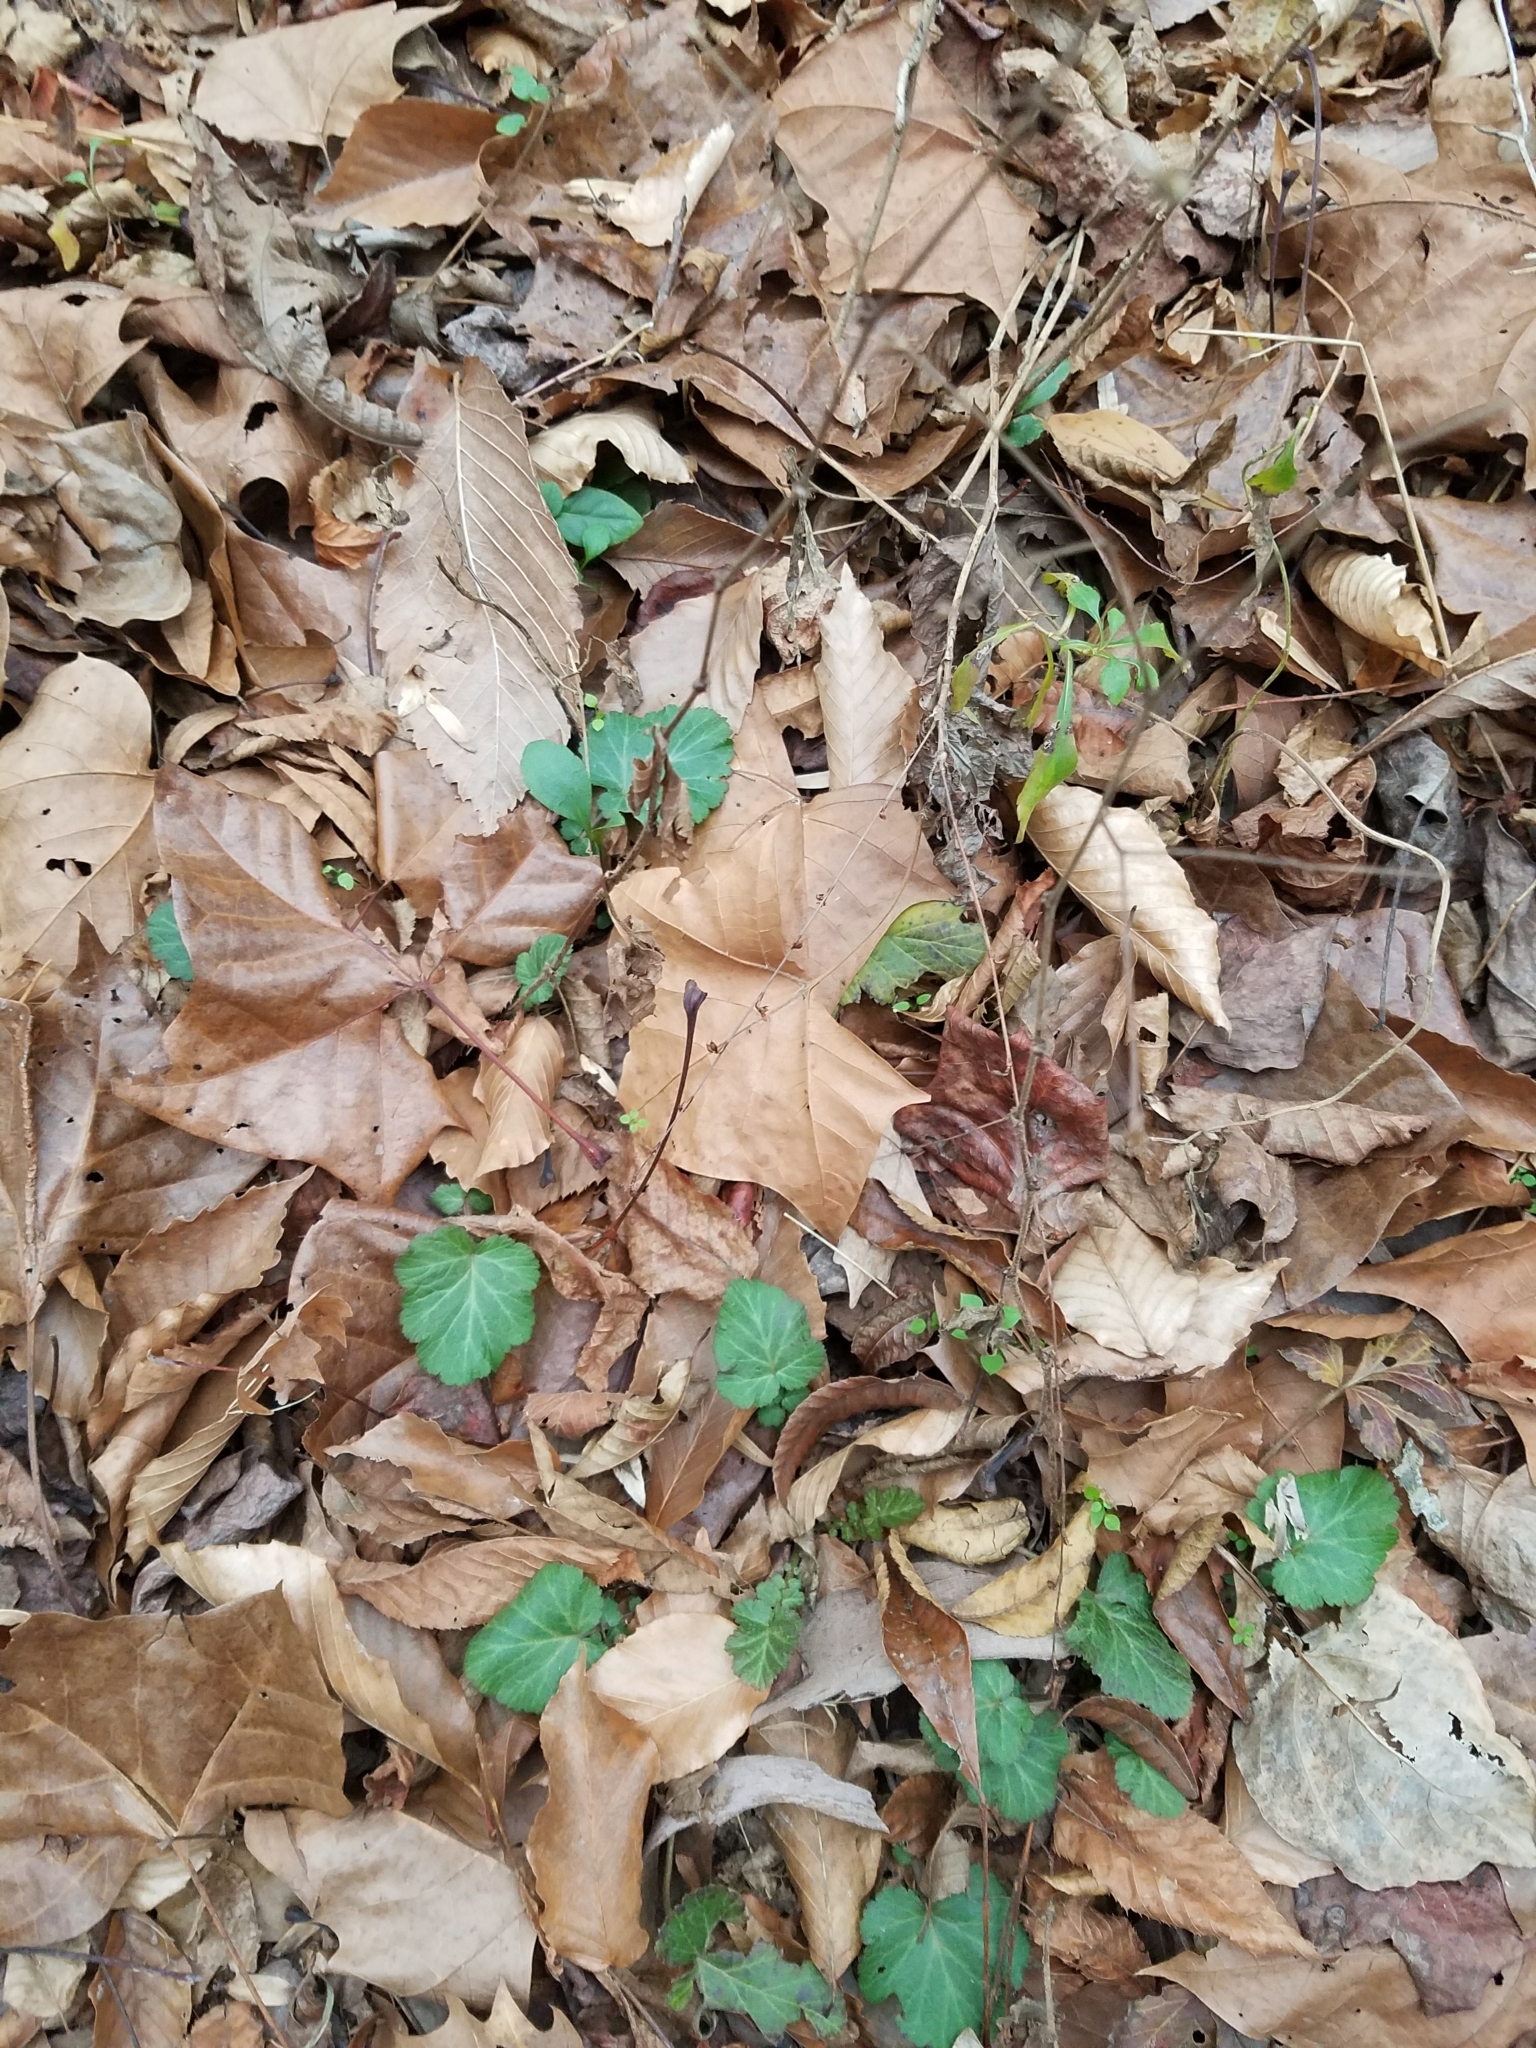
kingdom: Plantae
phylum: Tracheophyta
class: Magnoliopsida
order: Rosales
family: Rosaceae
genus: Geum
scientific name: Geum canadense
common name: White avens
